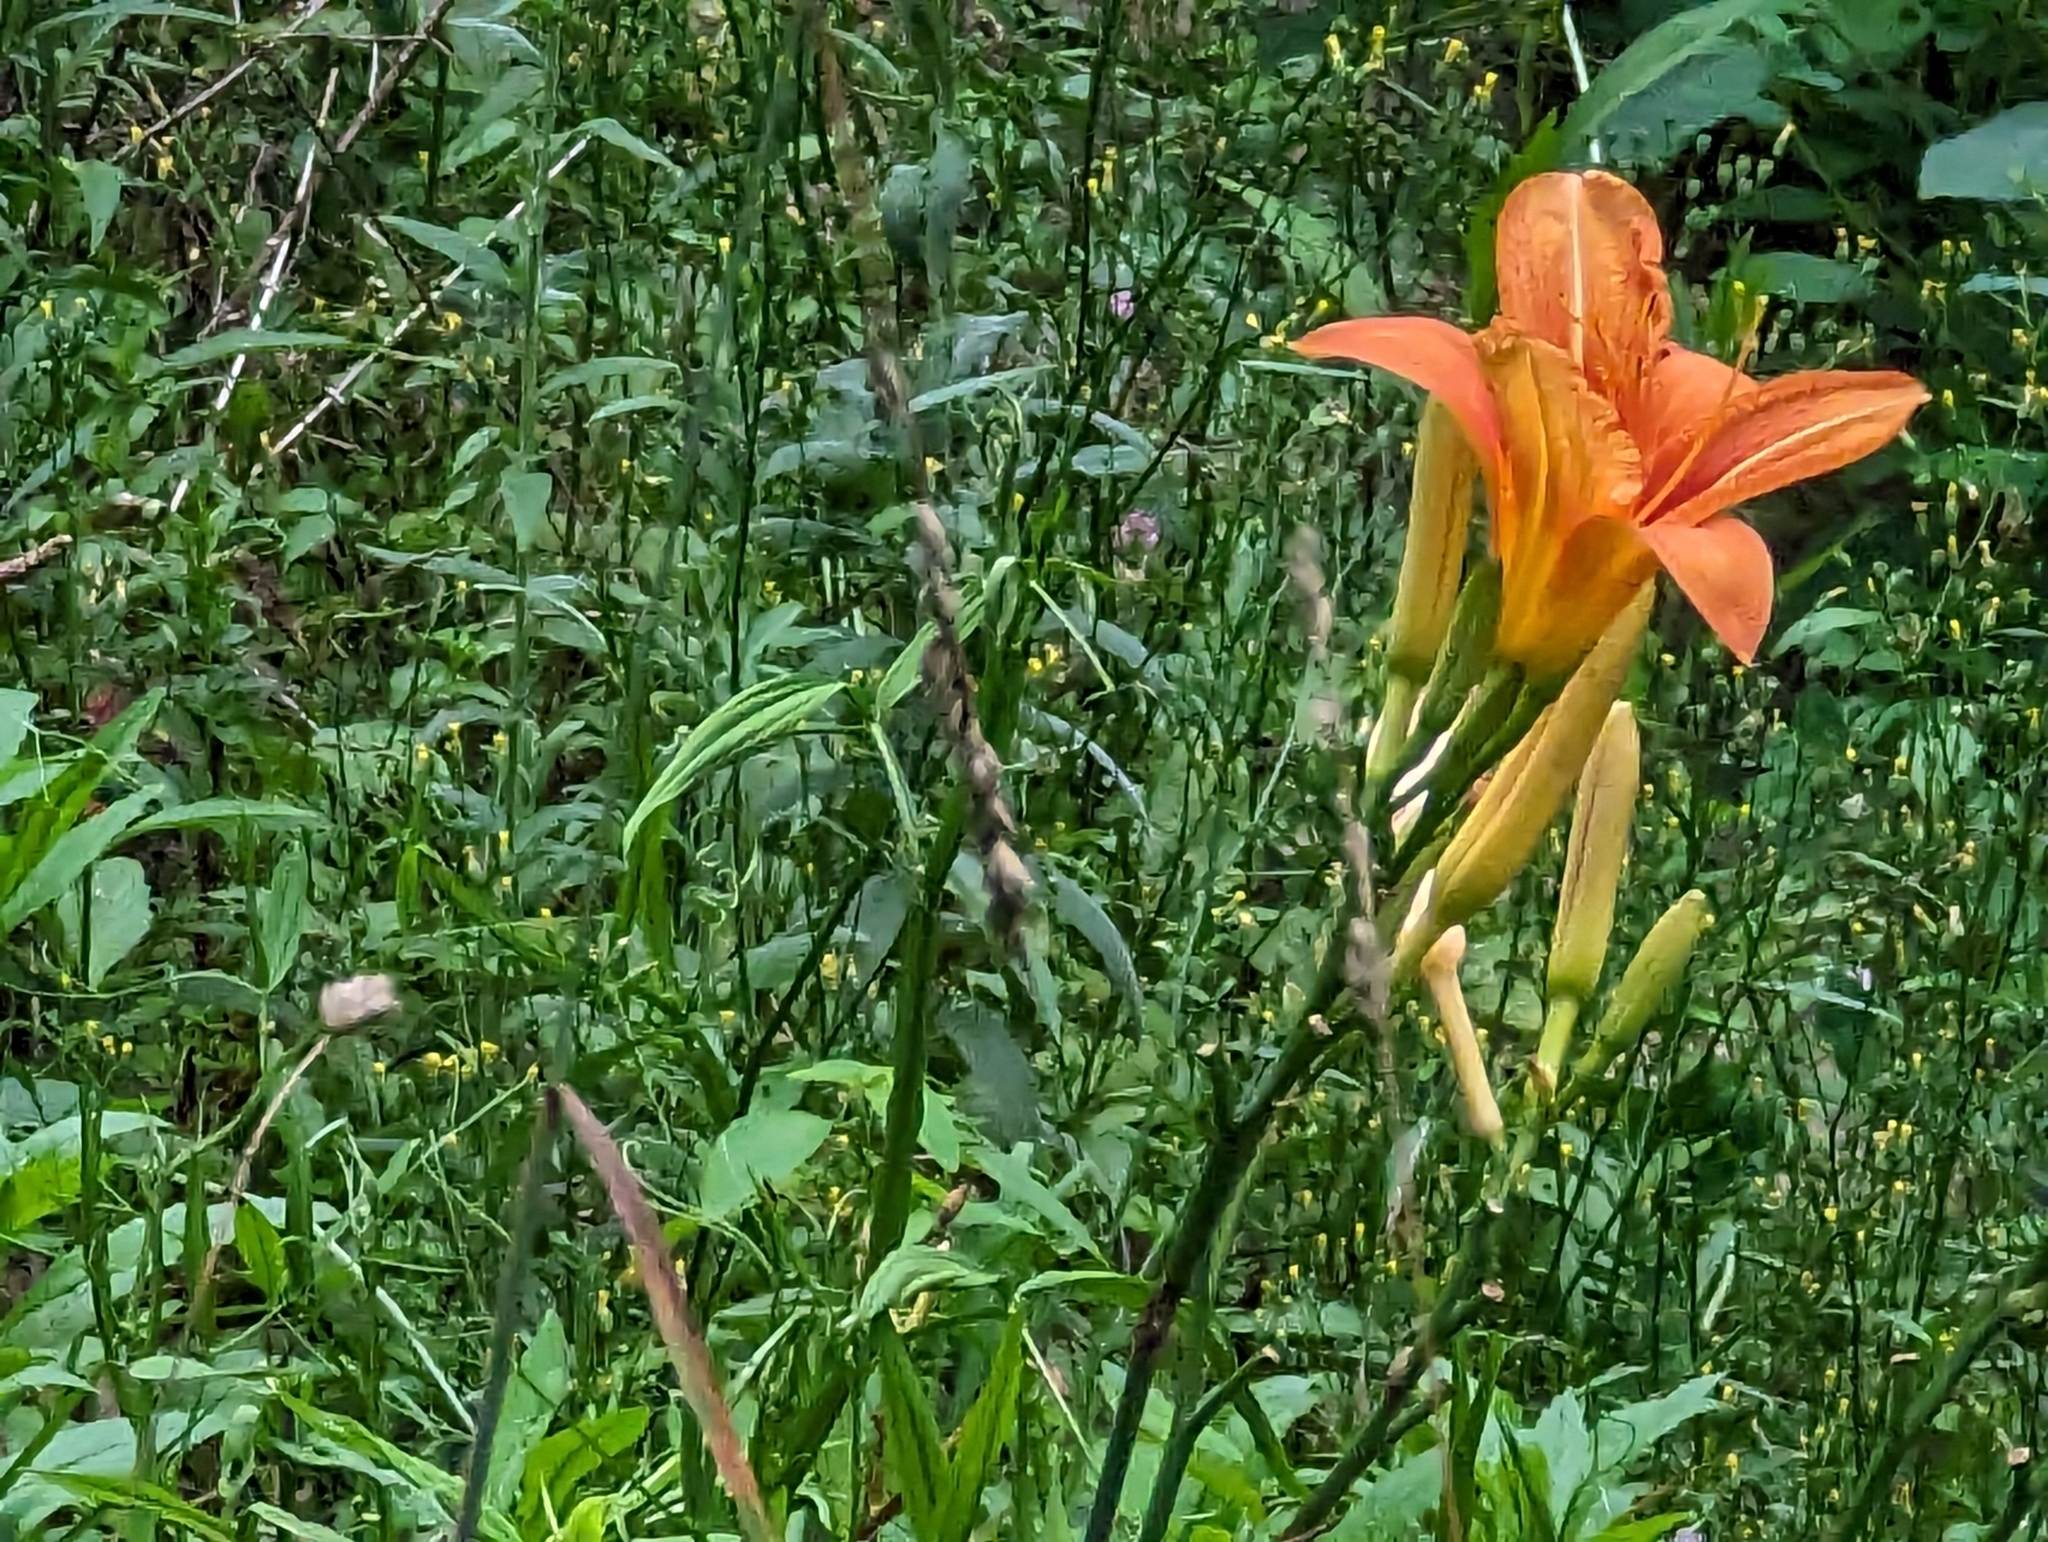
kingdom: Plantae
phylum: Tracheophyta
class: Liliopsida
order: Asparagales
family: Asphodelaceae
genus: Hemerocallis
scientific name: Hemerocallis fulva
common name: Orange day-lily
